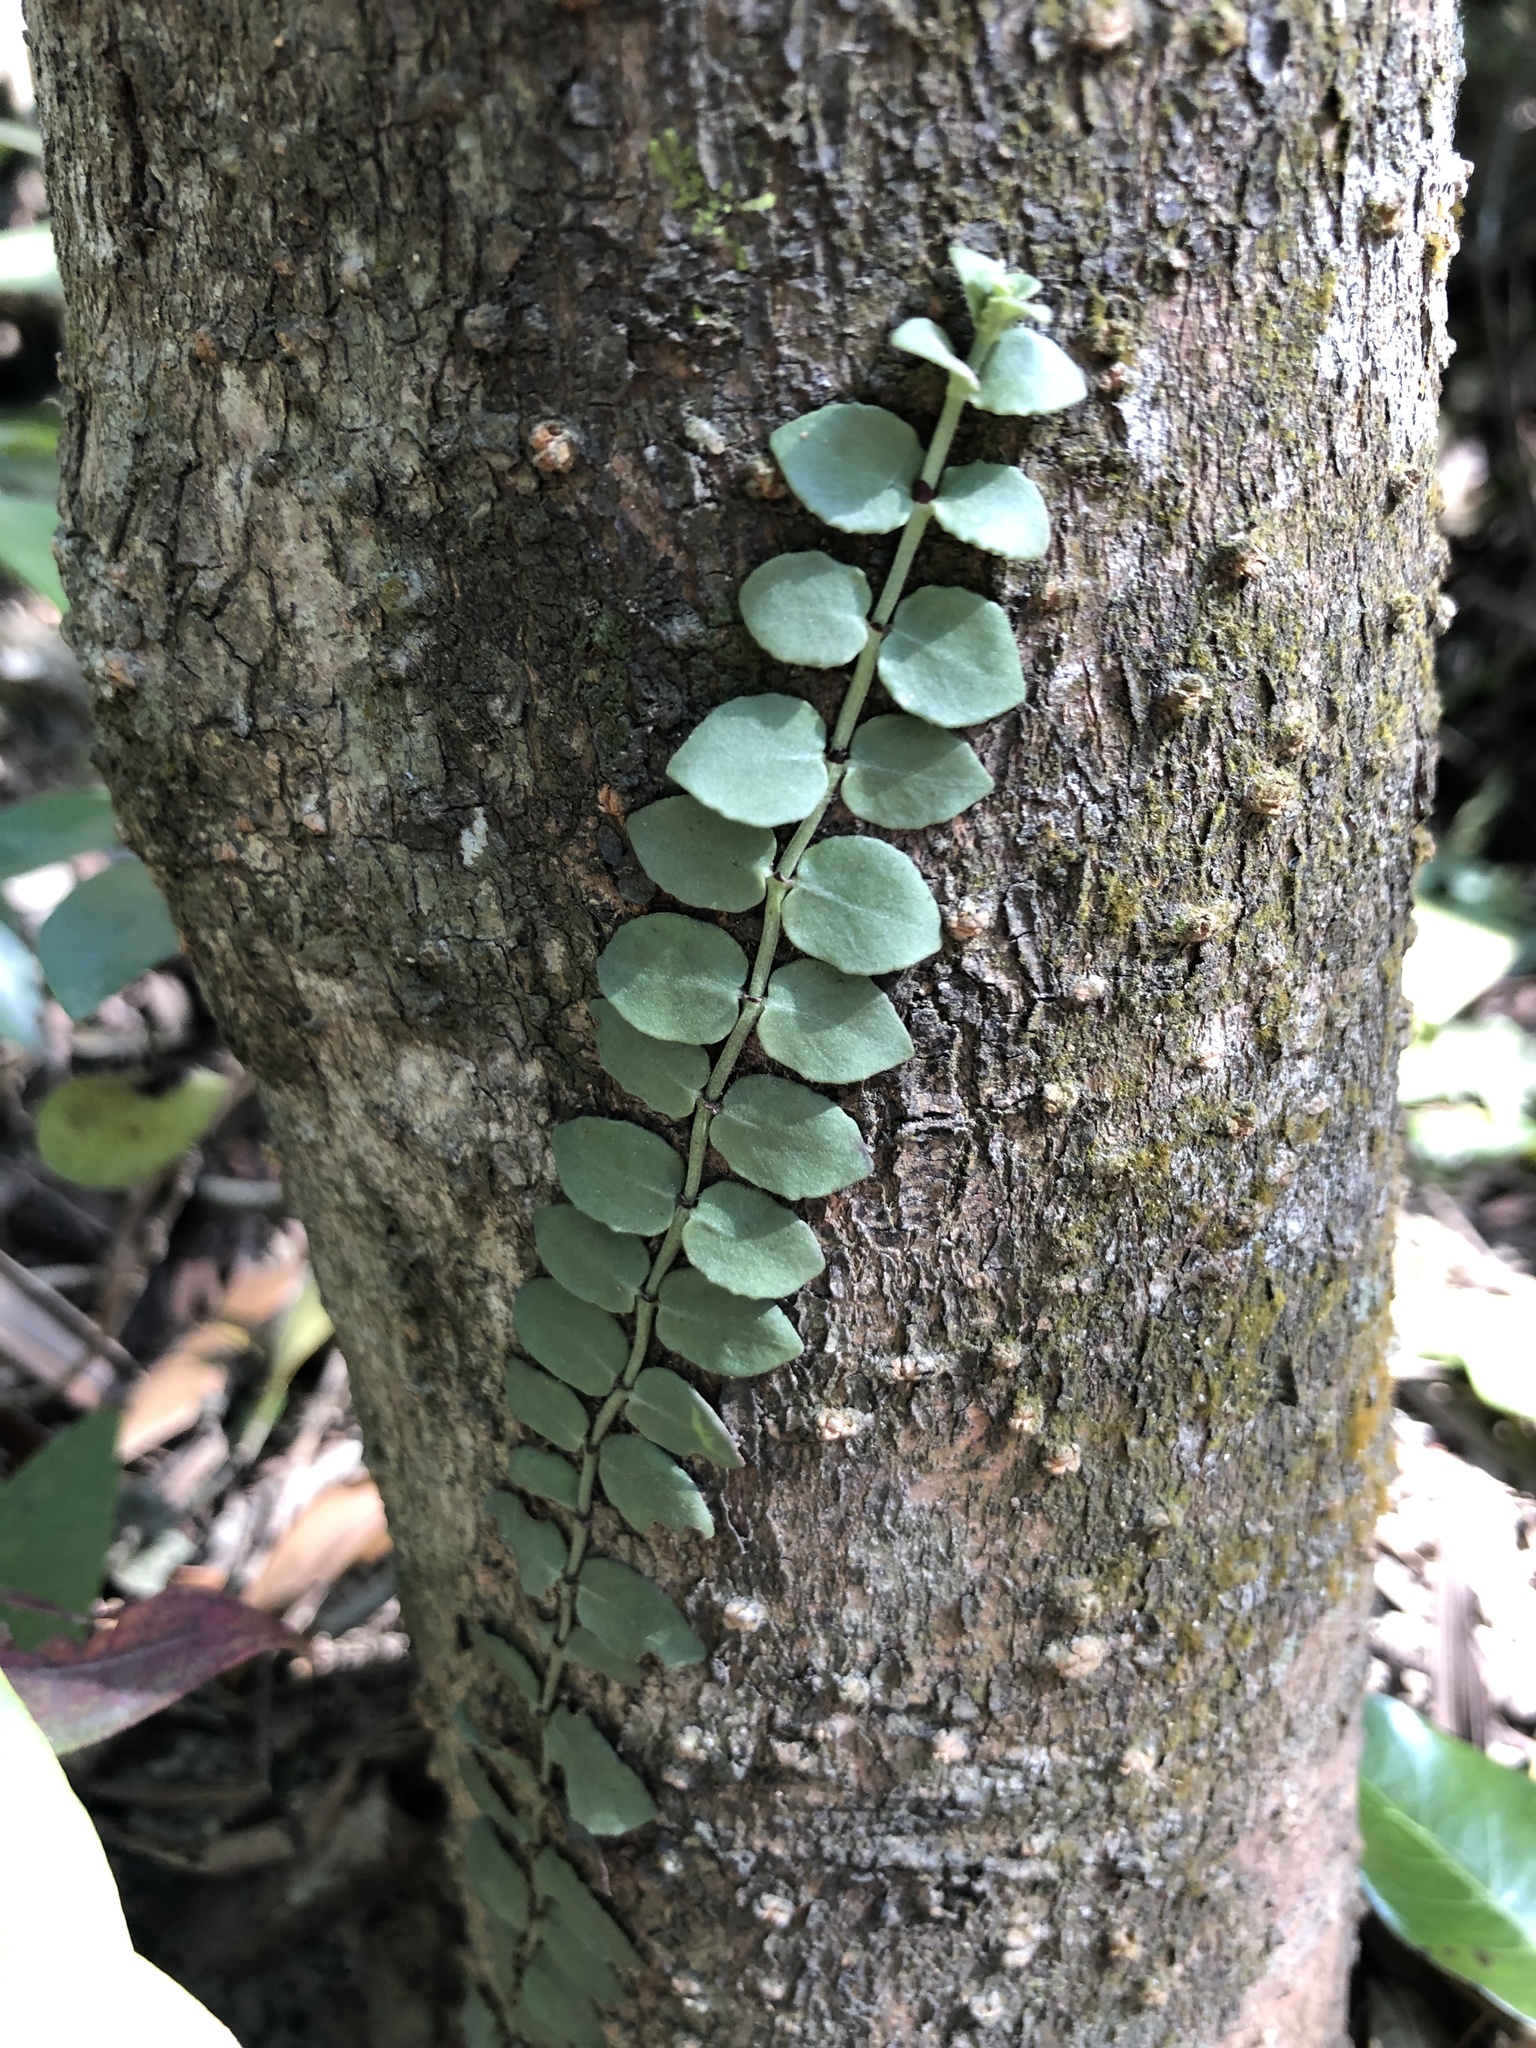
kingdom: Plantae
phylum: Tracheophyta
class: Magnoliopsida
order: Gentianales
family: Rubiaceae
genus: Psychotria
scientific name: Psychotria serpens
